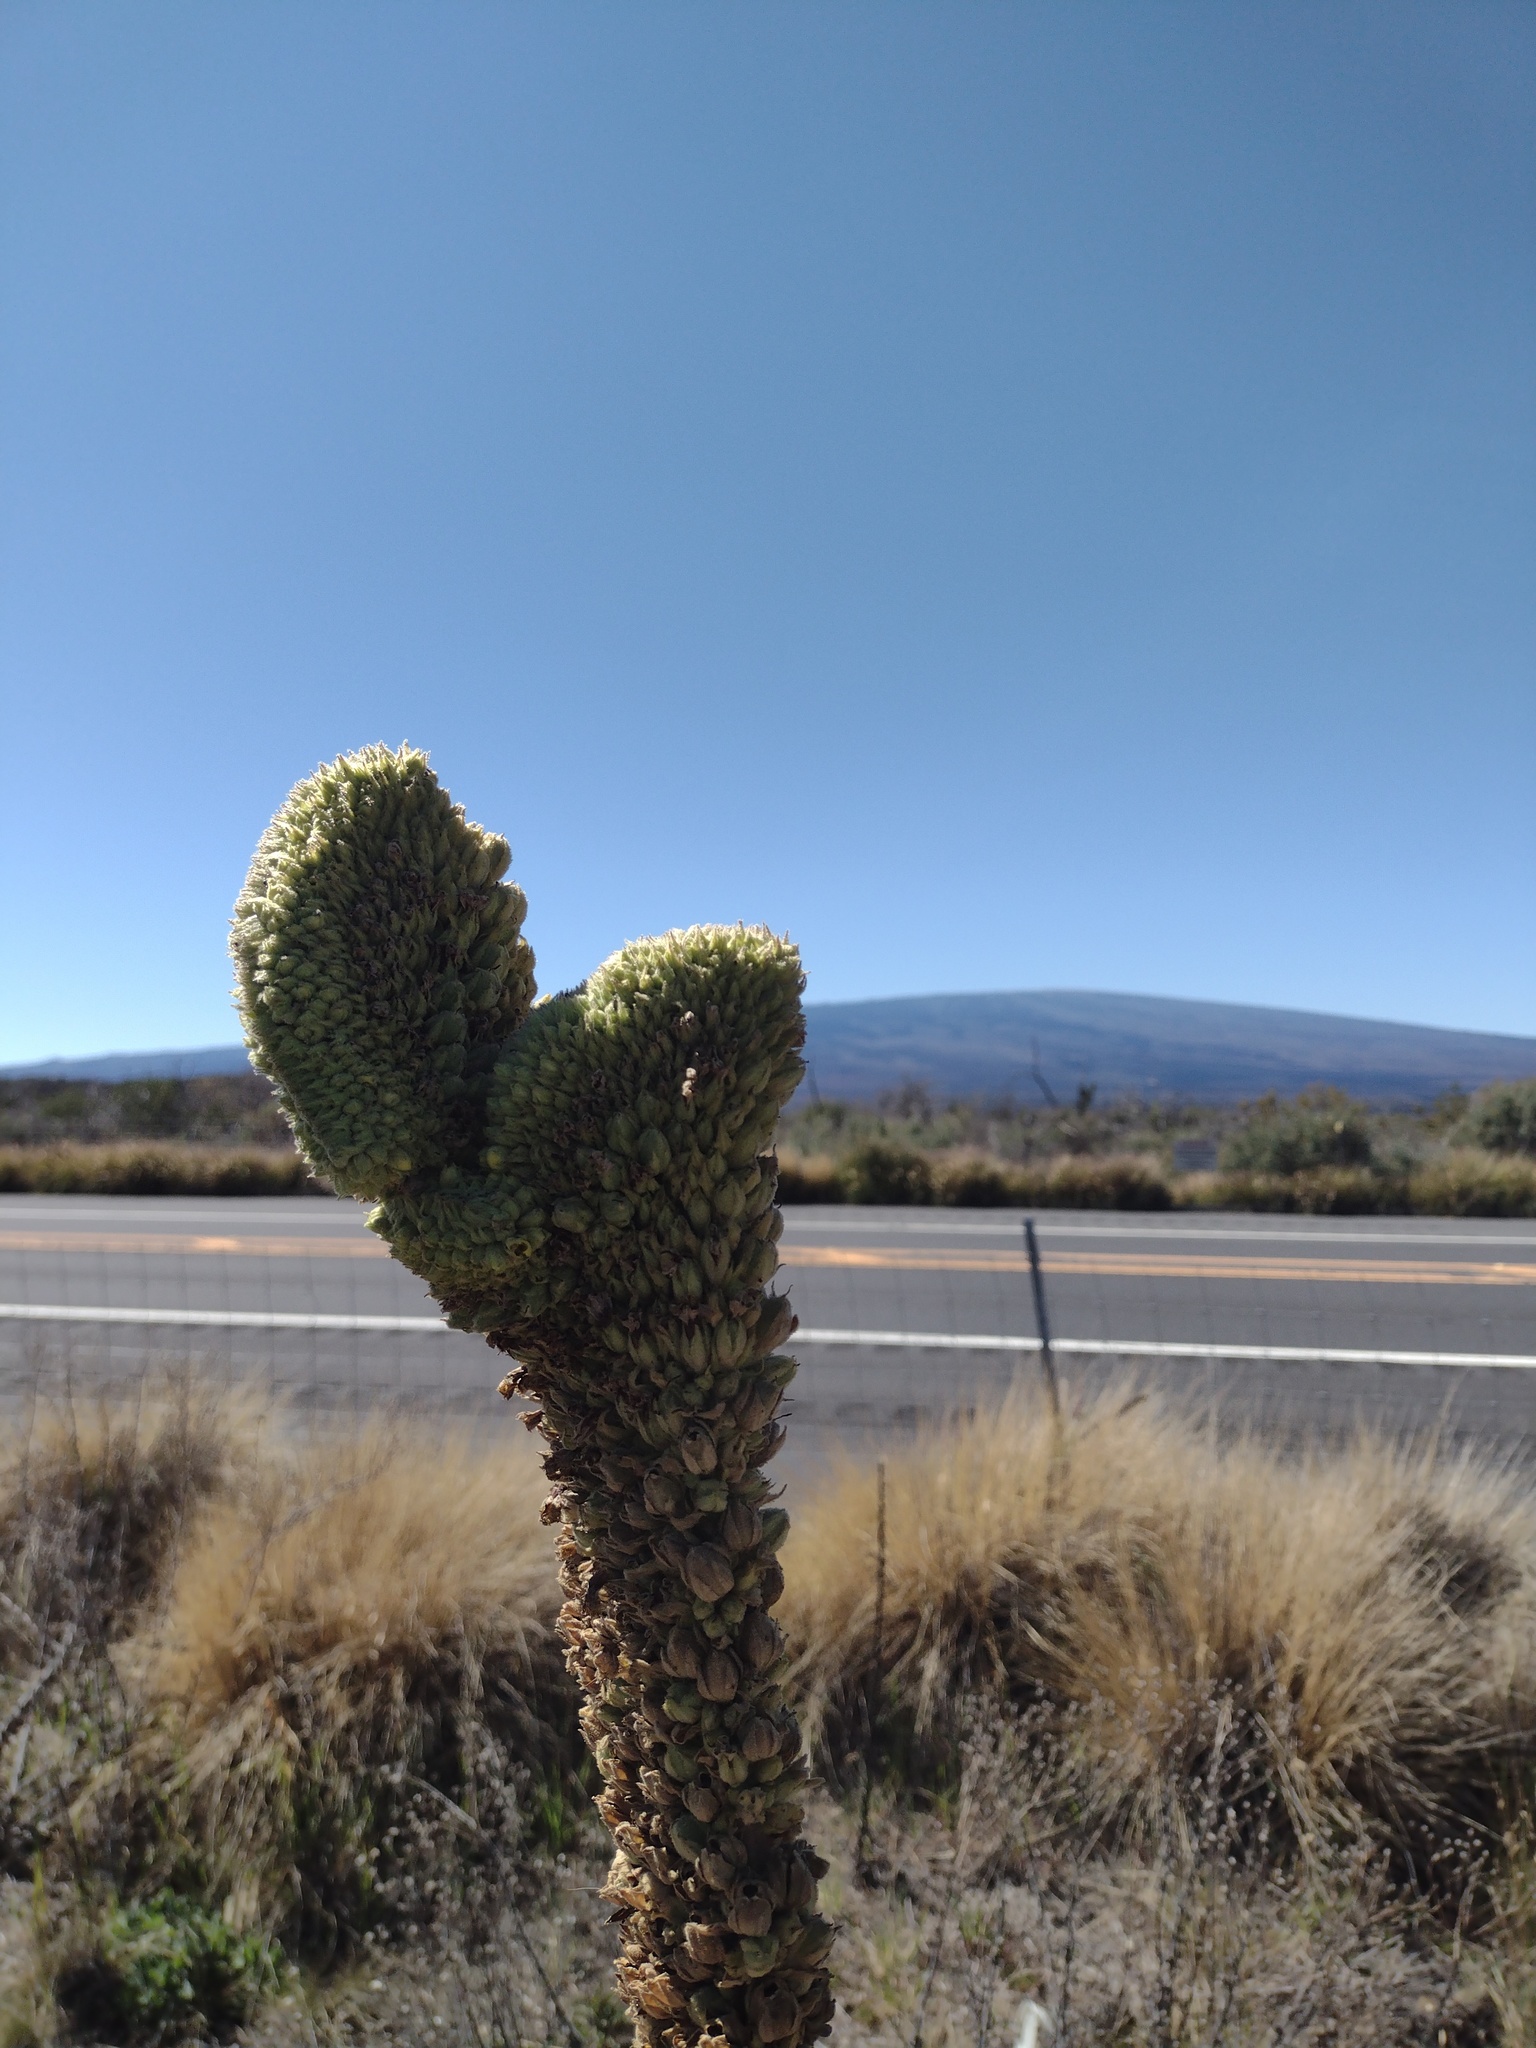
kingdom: Plantae
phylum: Tracheophyta
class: Magnoliopsida
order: Lamiales
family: Scrophulariaceae
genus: Verbascum
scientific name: Verbascum thapsus
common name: Common mullein
